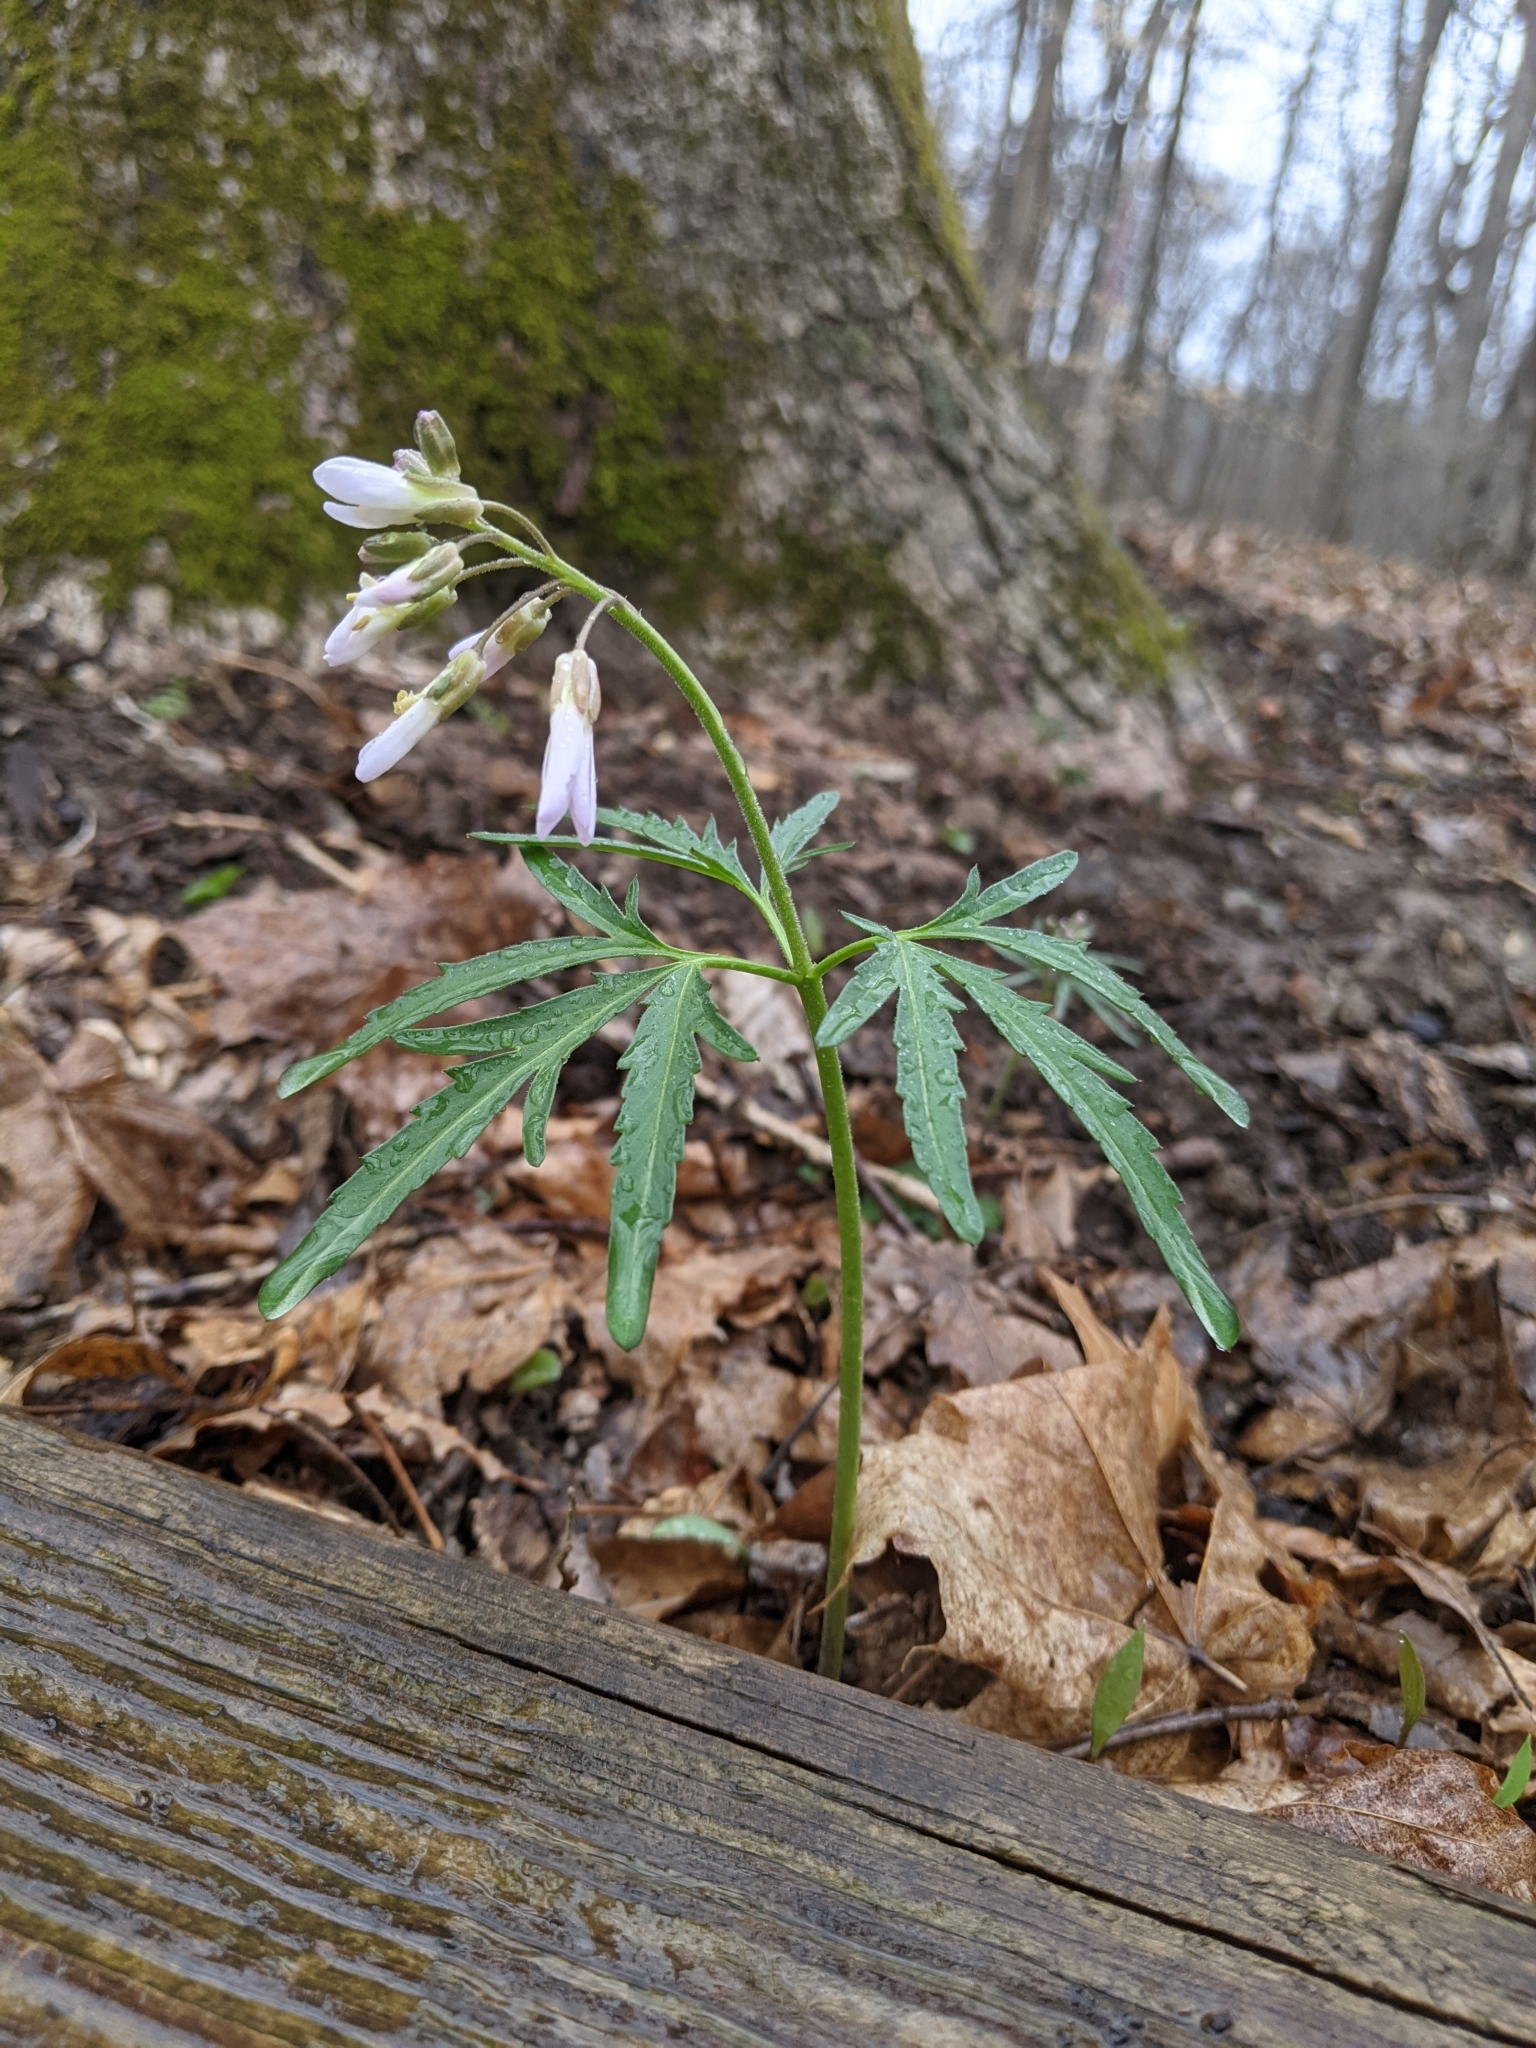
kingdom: Plantae
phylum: Tracheophyta
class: Magnoliopsida
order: Brassicales
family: Brassicaceae
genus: Cardamine
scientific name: Cardamine concatenata
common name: Cut-leaf toothcup
